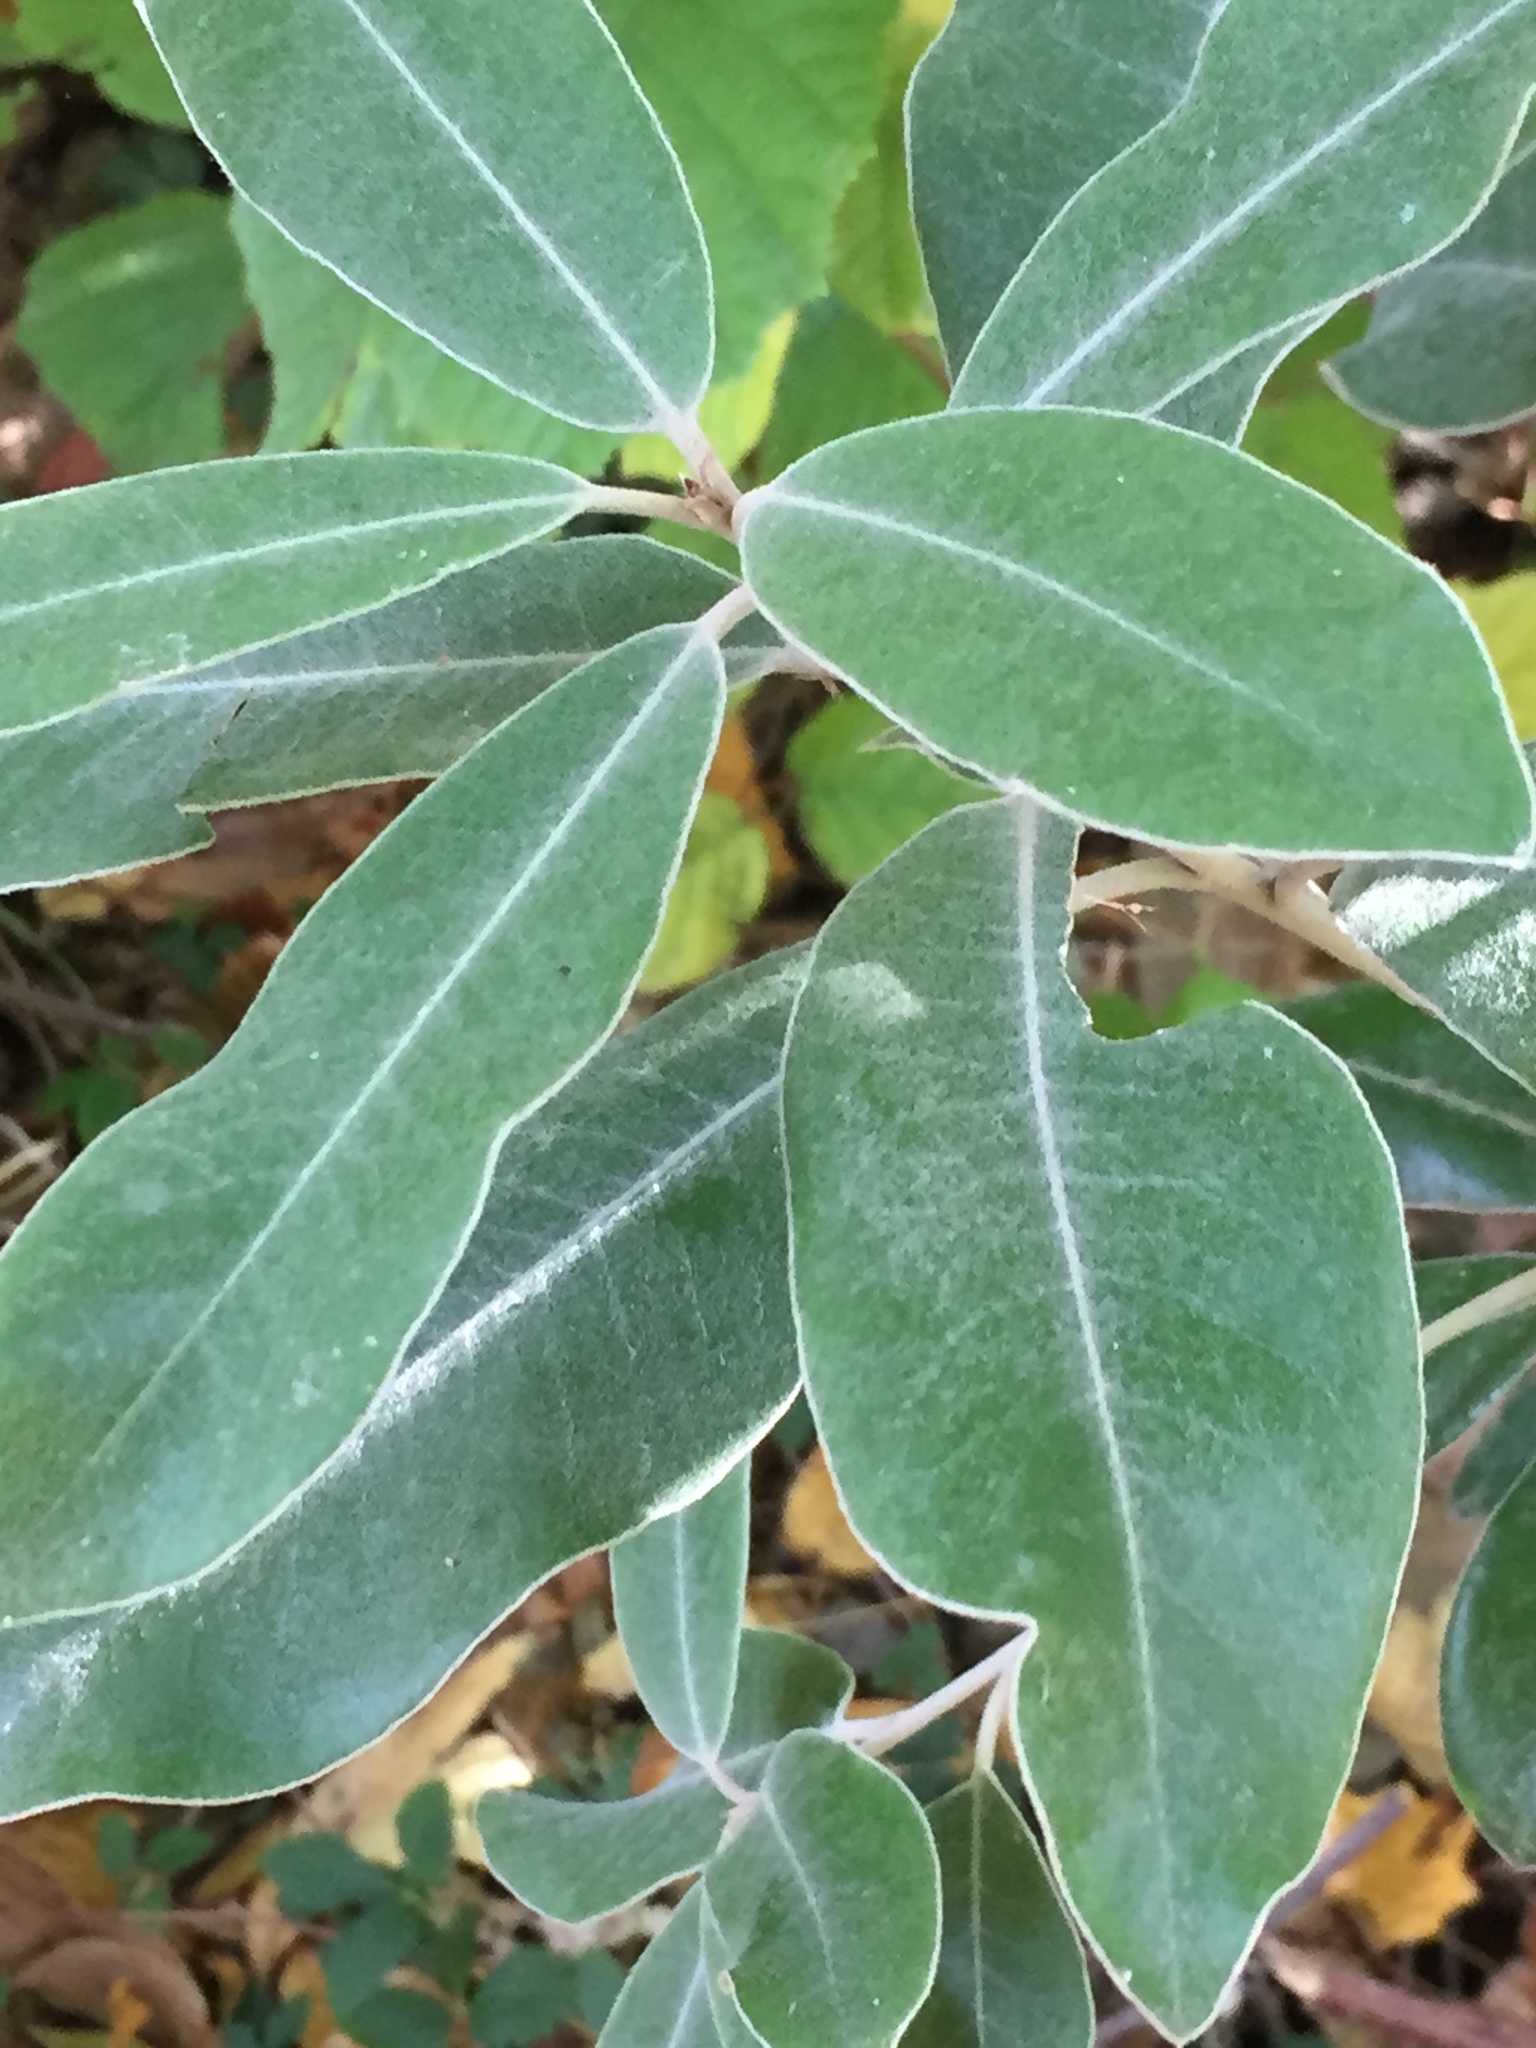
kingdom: Plantae
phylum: Tracheophyta
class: Magnoliopsida
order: Apiales
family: Pittosporaceae
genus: Pittosporum
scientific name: Pittosporum ralphii
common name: Ralph's desertwillow
